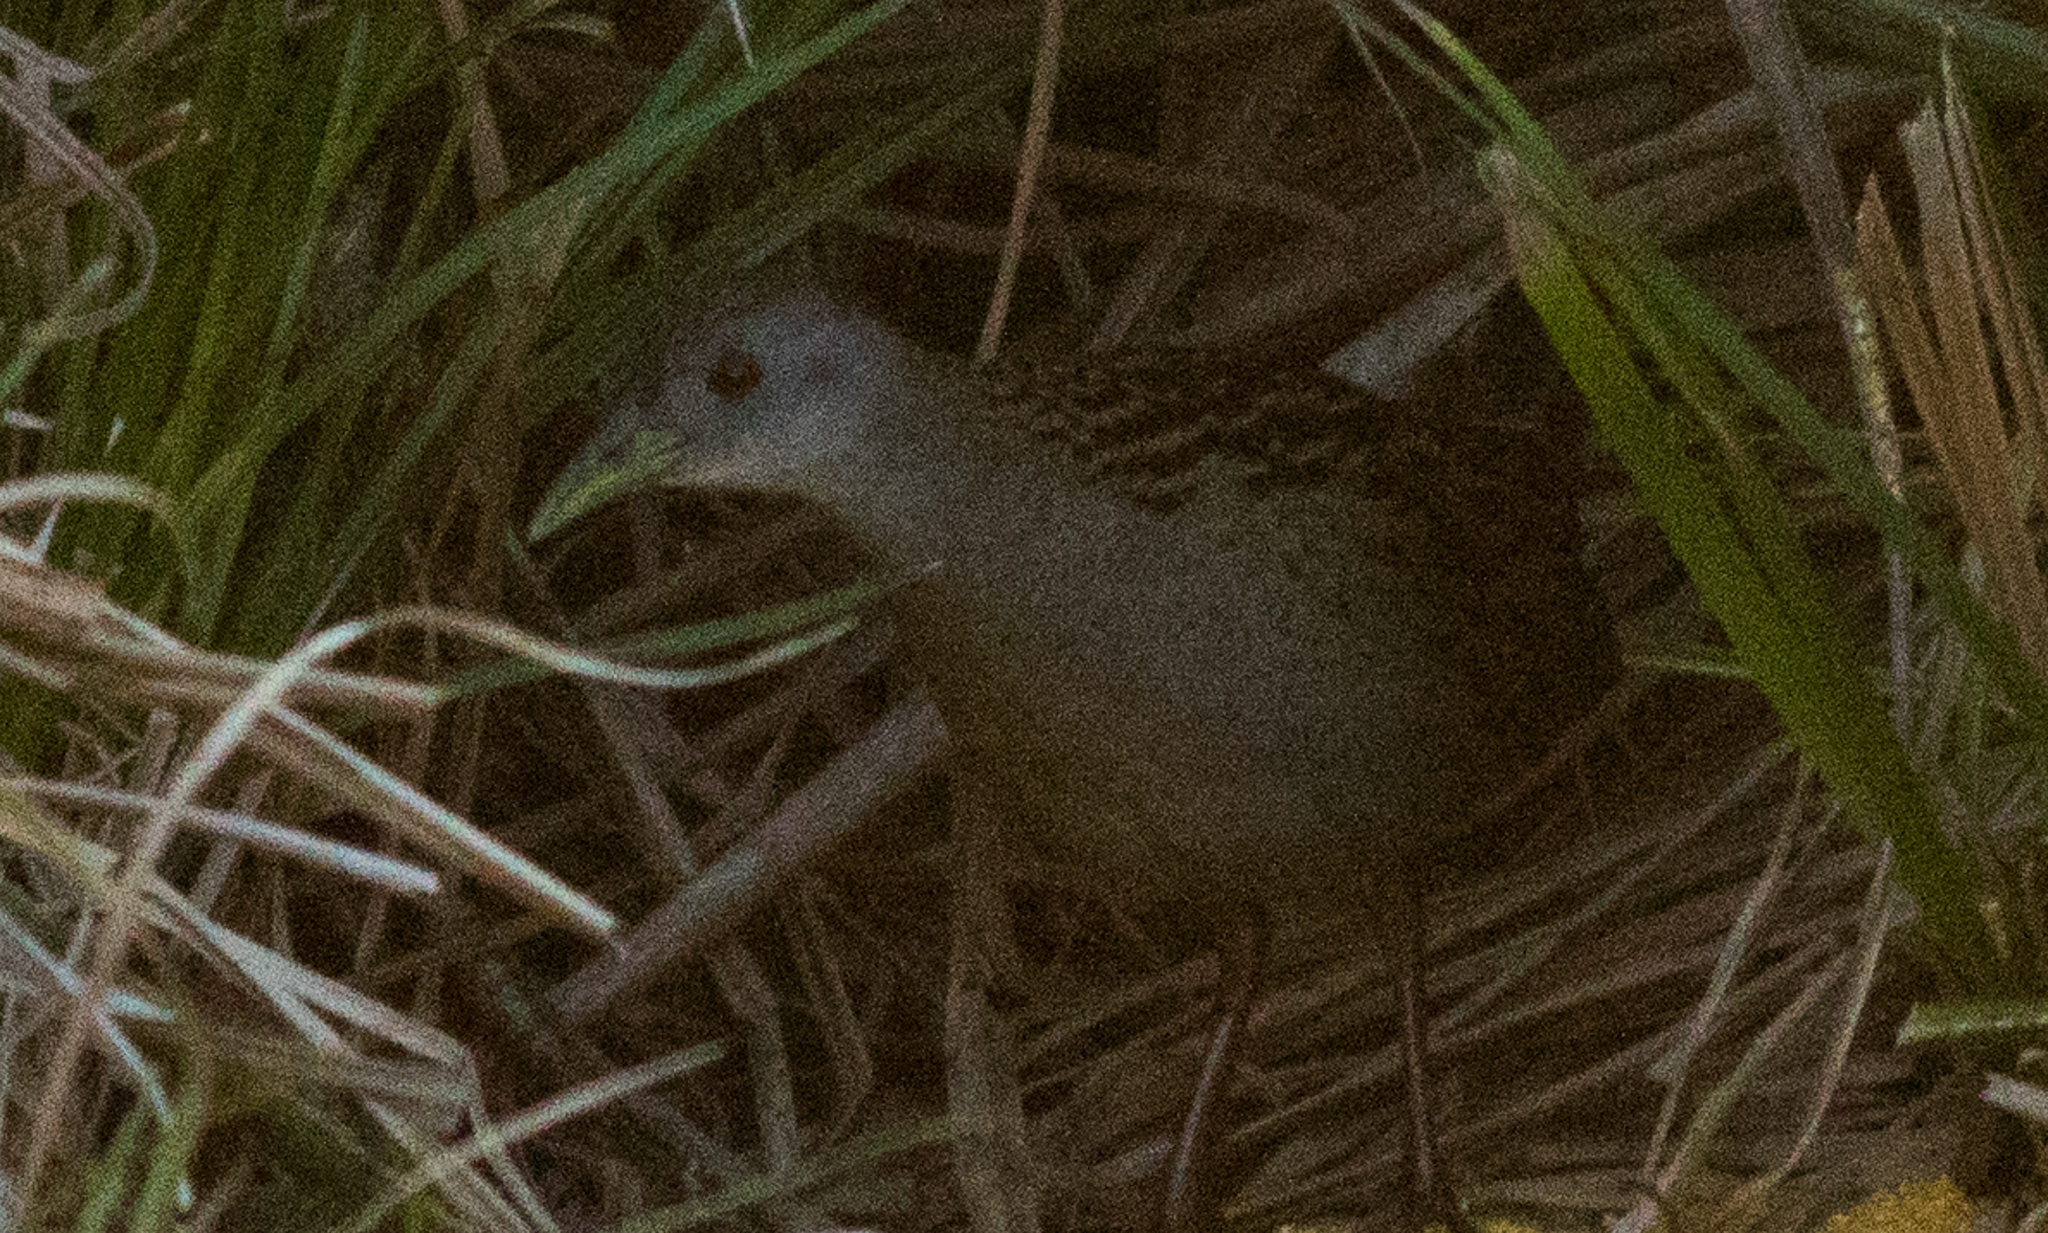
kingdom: Animalia
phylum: Chordata
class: Aves
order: Gruiformes
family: Rallidae
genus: Porzana
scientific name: Porzana albicollis
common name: Ash-throated crake
